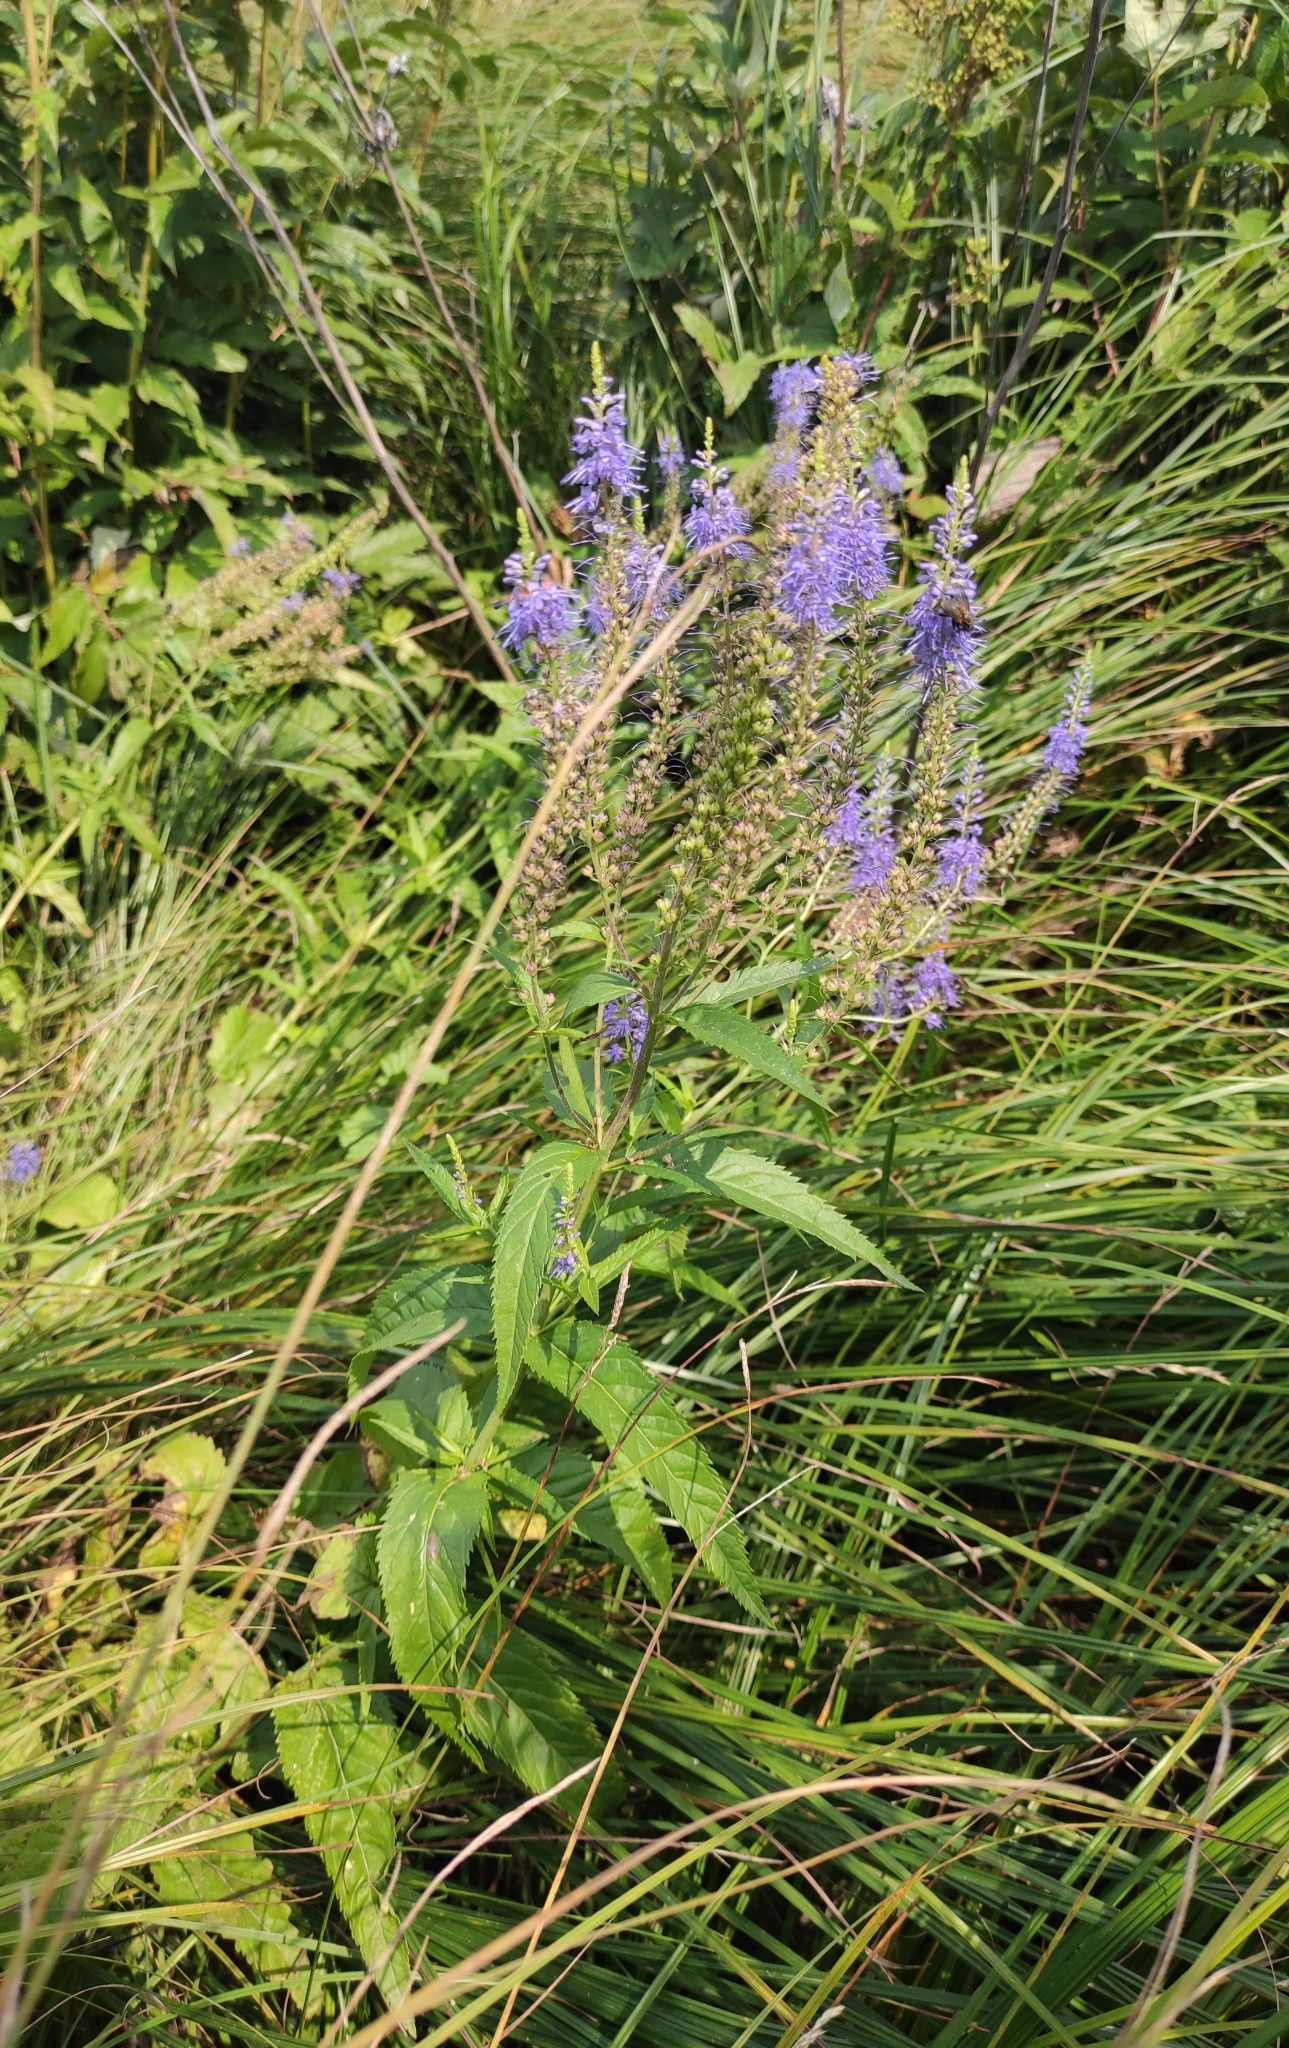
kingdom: Plantae
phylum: Tracheophyta
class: Magnoliopsida
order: Lamiales
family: Plantaginaceae
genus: Veronica
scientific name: Veronica longifolia
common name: Garden speedwell
